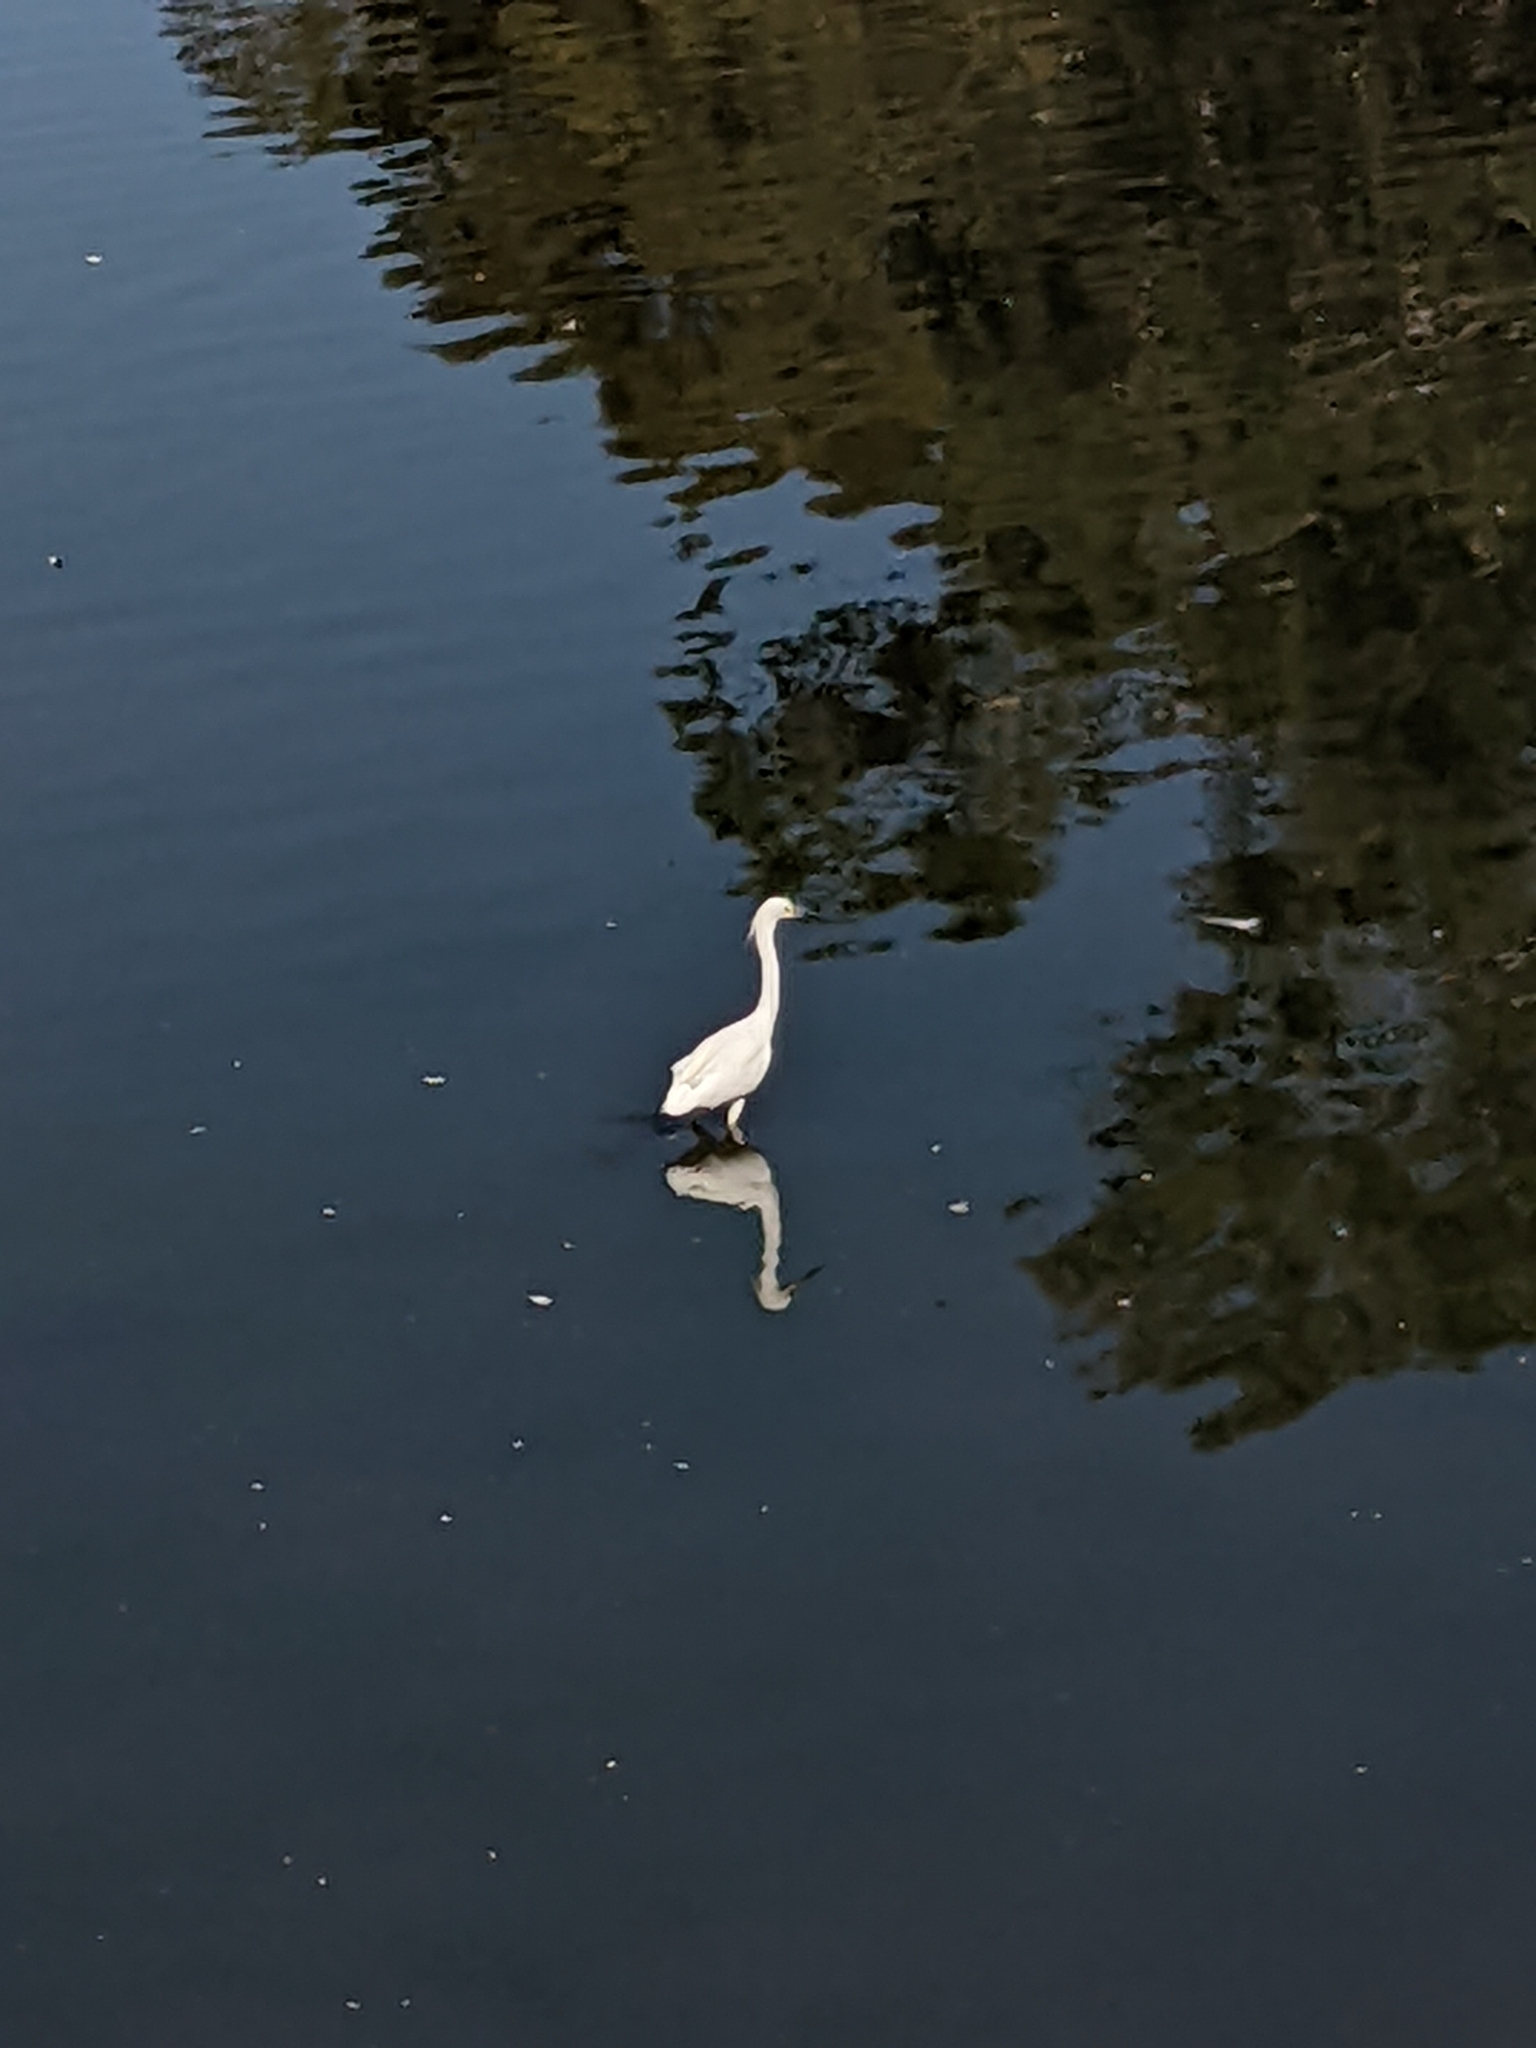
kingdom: Animalia
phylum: Chordata
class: Aves
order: Pelecaniformes
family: Ardeidae
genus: Egretta
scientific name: Egretta thula
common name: Snowy egret
